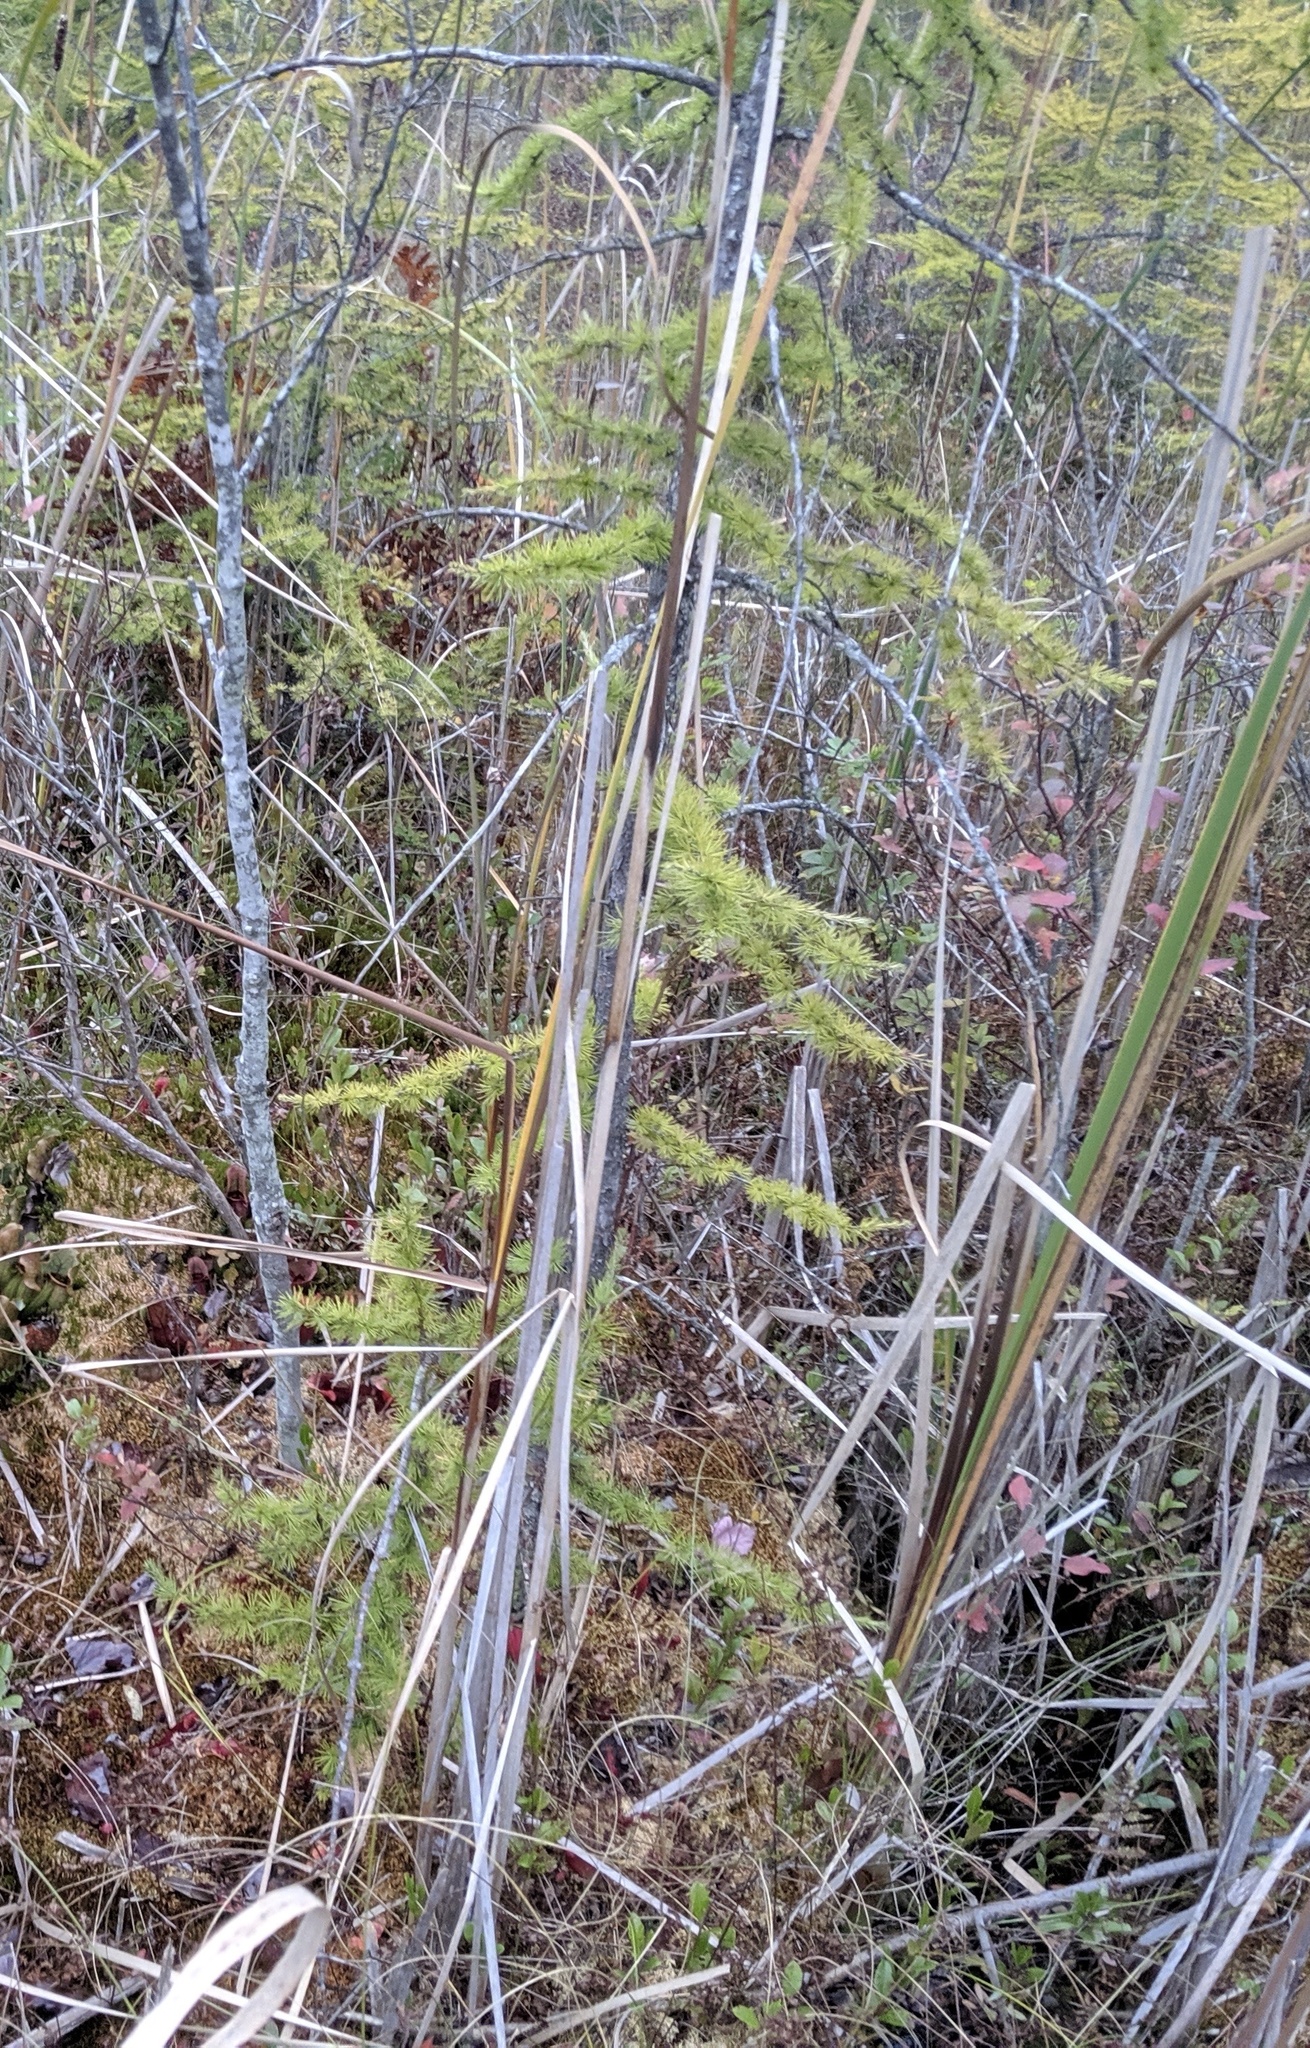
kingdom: Plantae
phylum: Tracheophyta
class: Pinopsida
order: Pinales
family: Pinaceae
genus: Larix
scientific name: Larix laricina
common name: American larch
